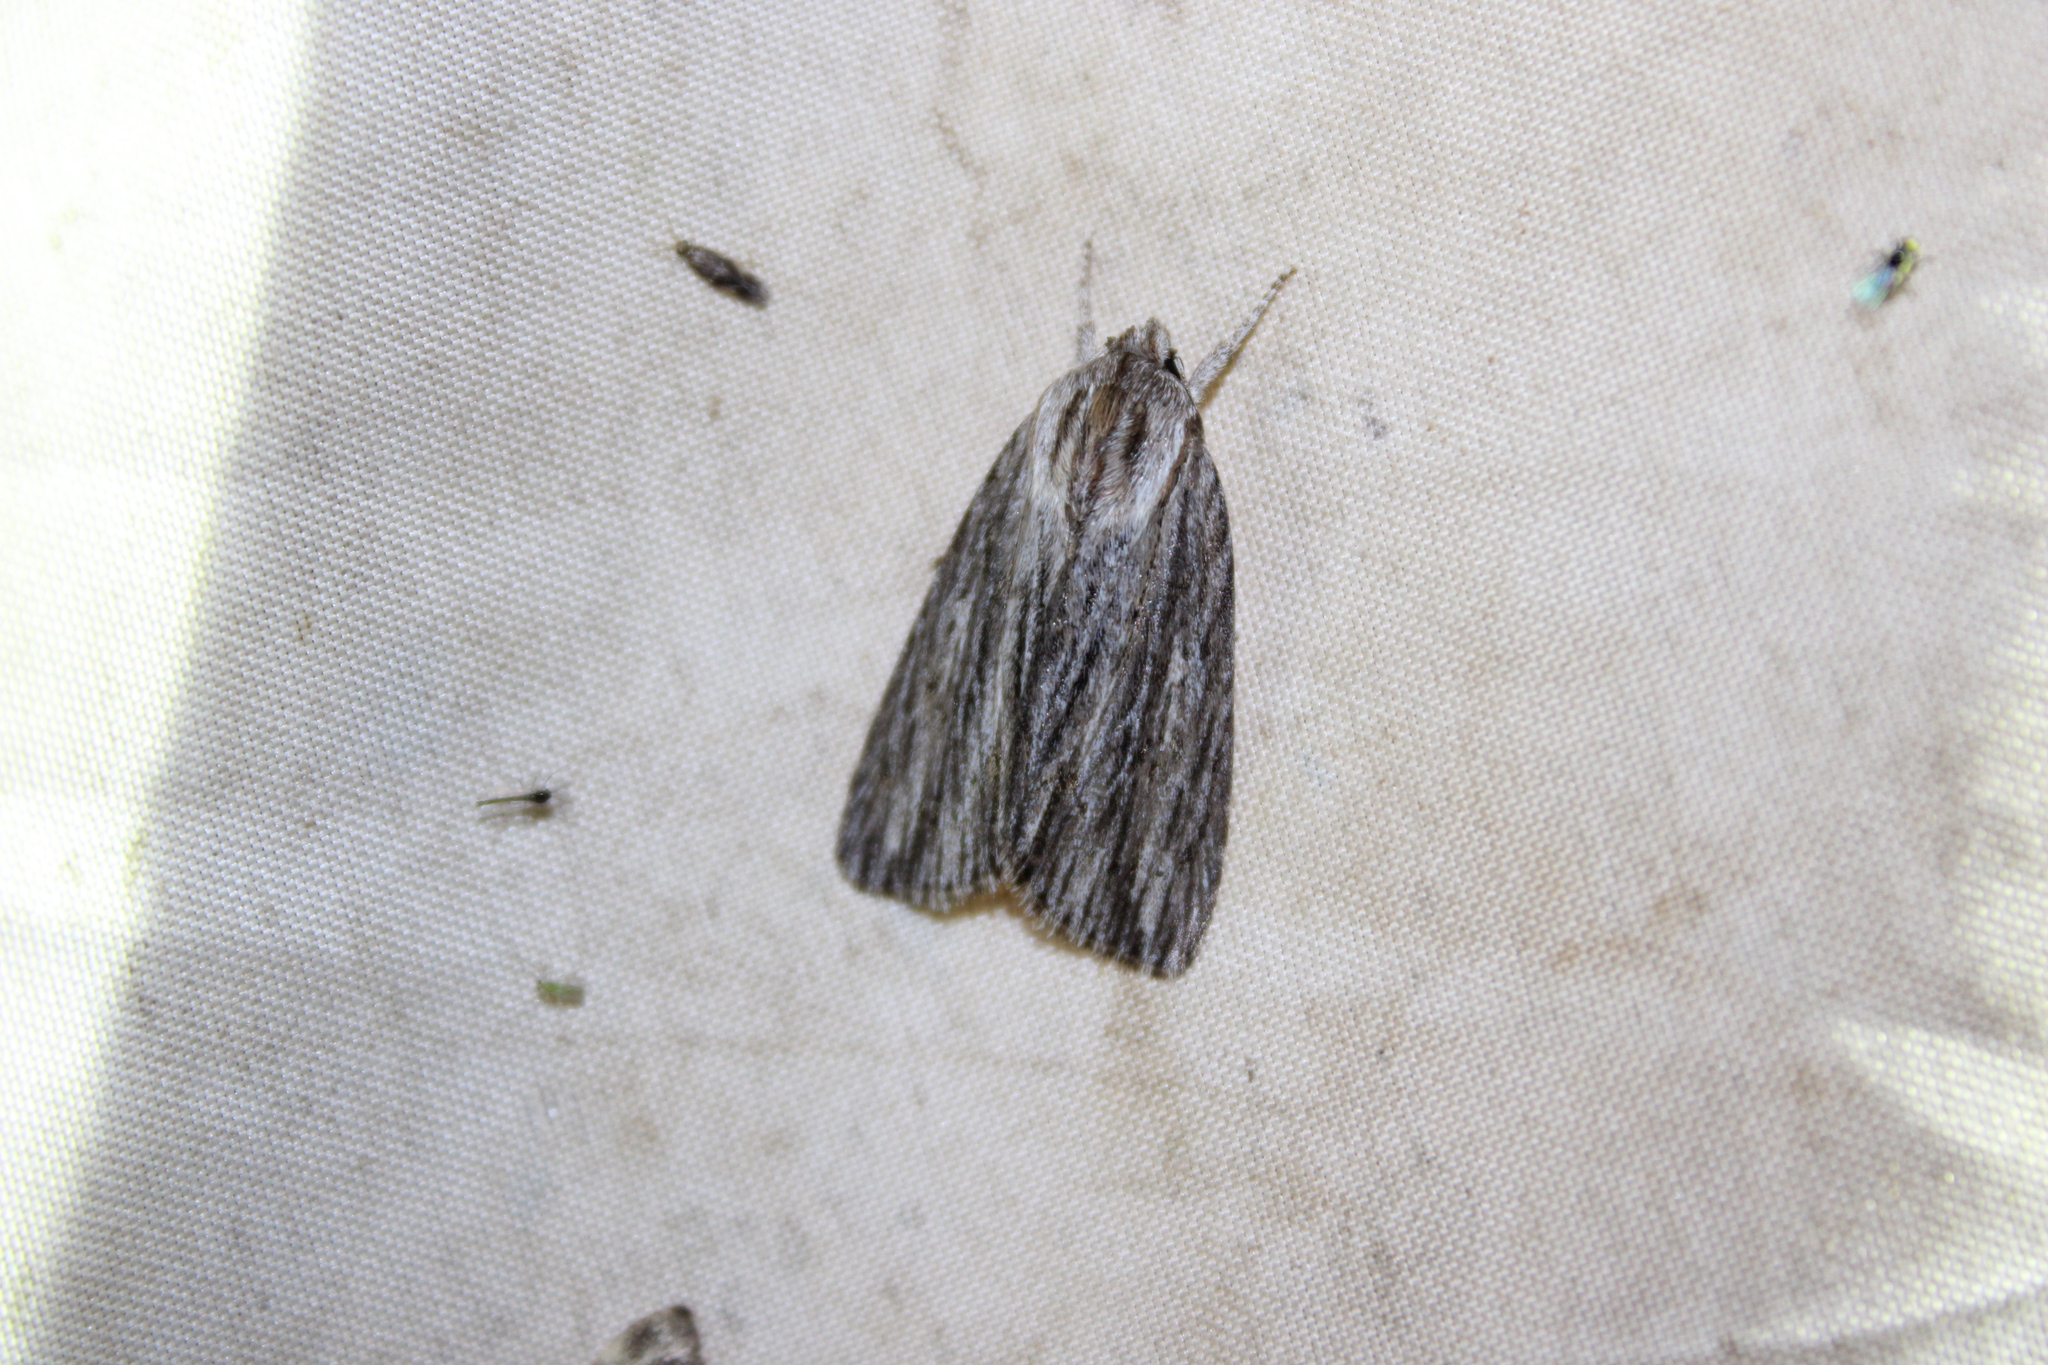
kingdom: Animalia
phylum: Arthropoda
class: Insecta
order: Lepidoptera
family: Noctuidae
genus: Acronicta
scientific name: Acronicta lithospila
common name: Streaked dagger
